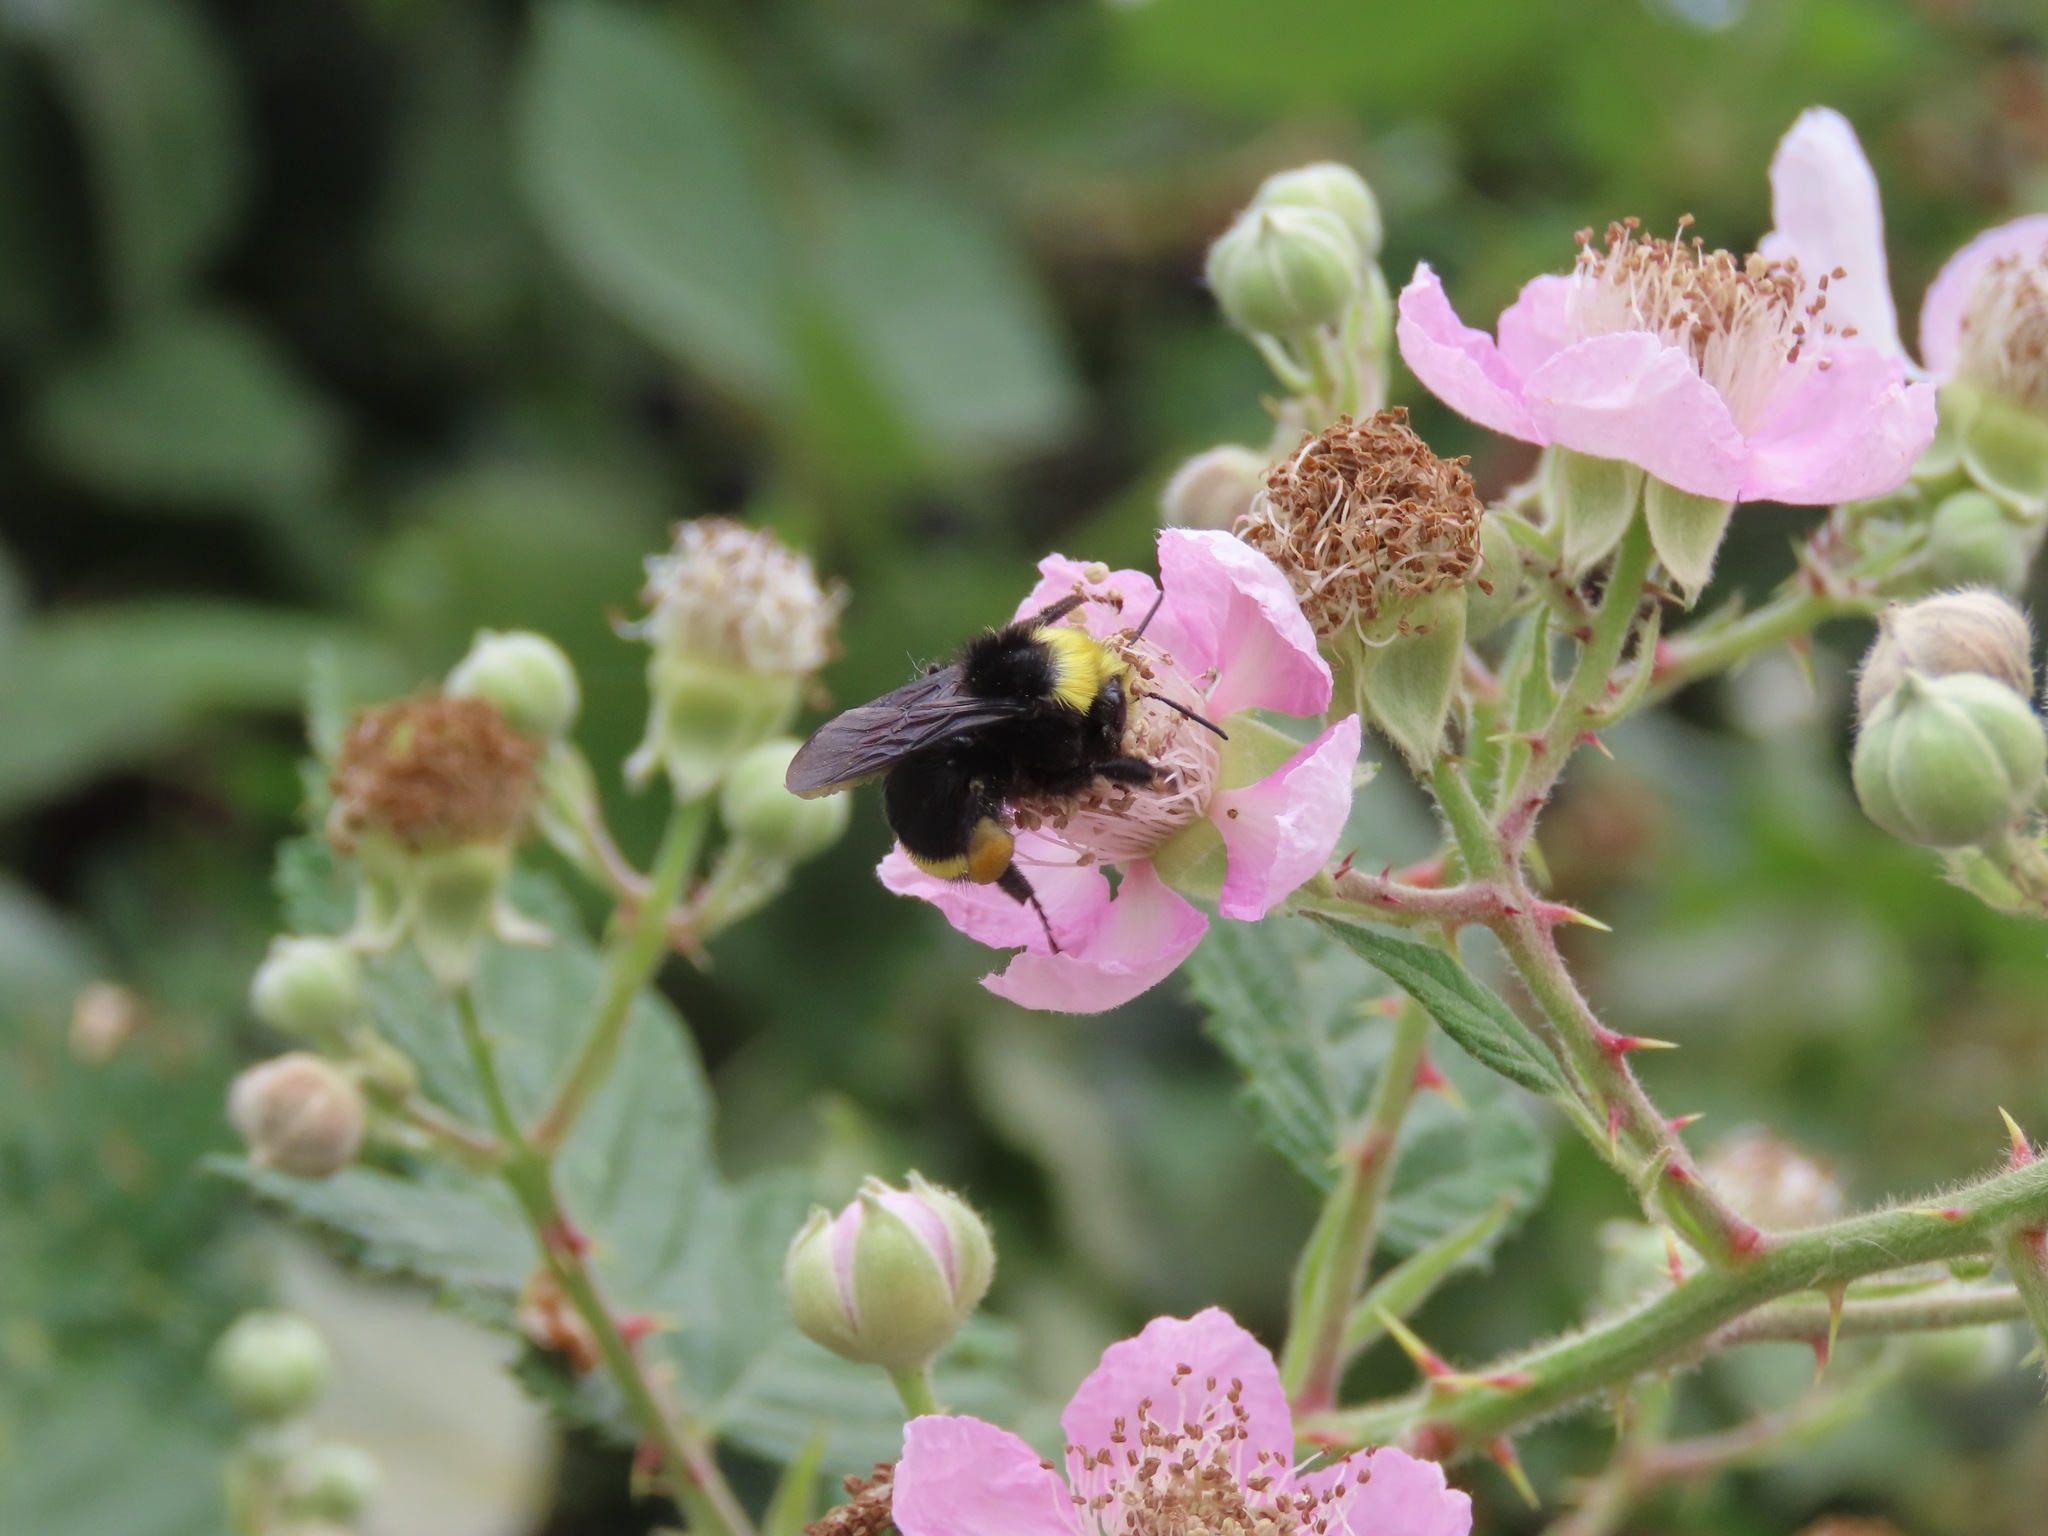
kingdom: Animalia
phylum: Arthropoda
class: Insecta
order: Hymenoptera
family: Apidae
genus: Bombus
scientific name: Bombus vosnesenskii
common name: Vosnesensky bumble bee
